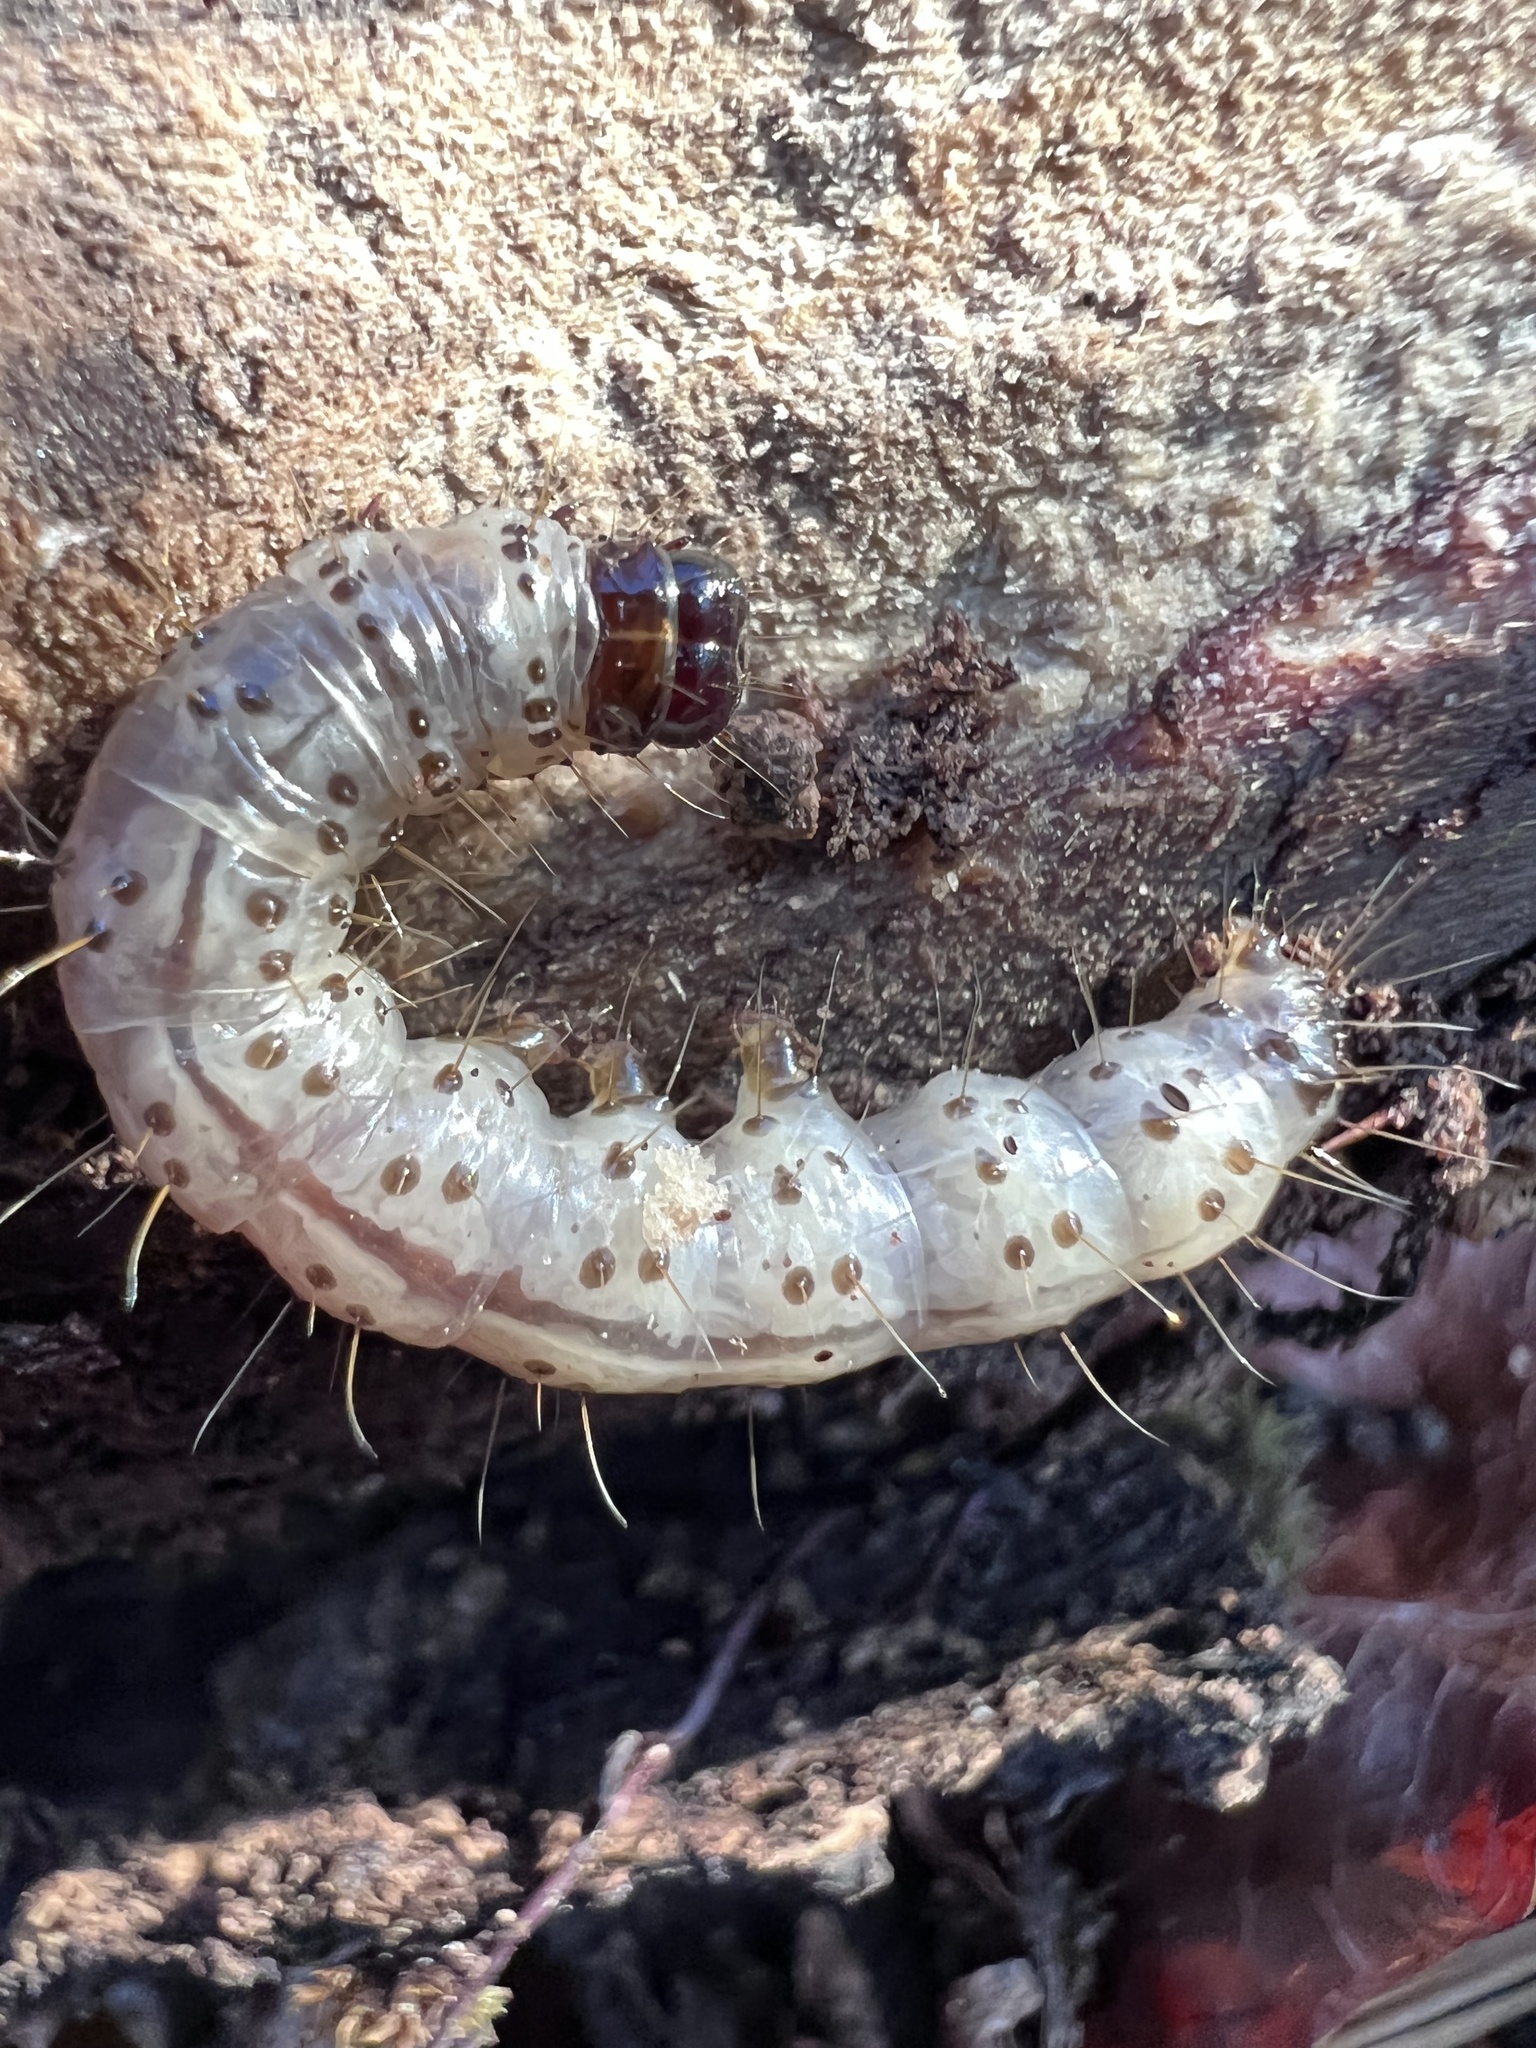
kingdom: Animalia
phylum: Arthropoda
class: Insecta
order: Lepidoptera
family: Erebidae
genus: Scolecocampa
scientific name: Scolecocampa liburna
